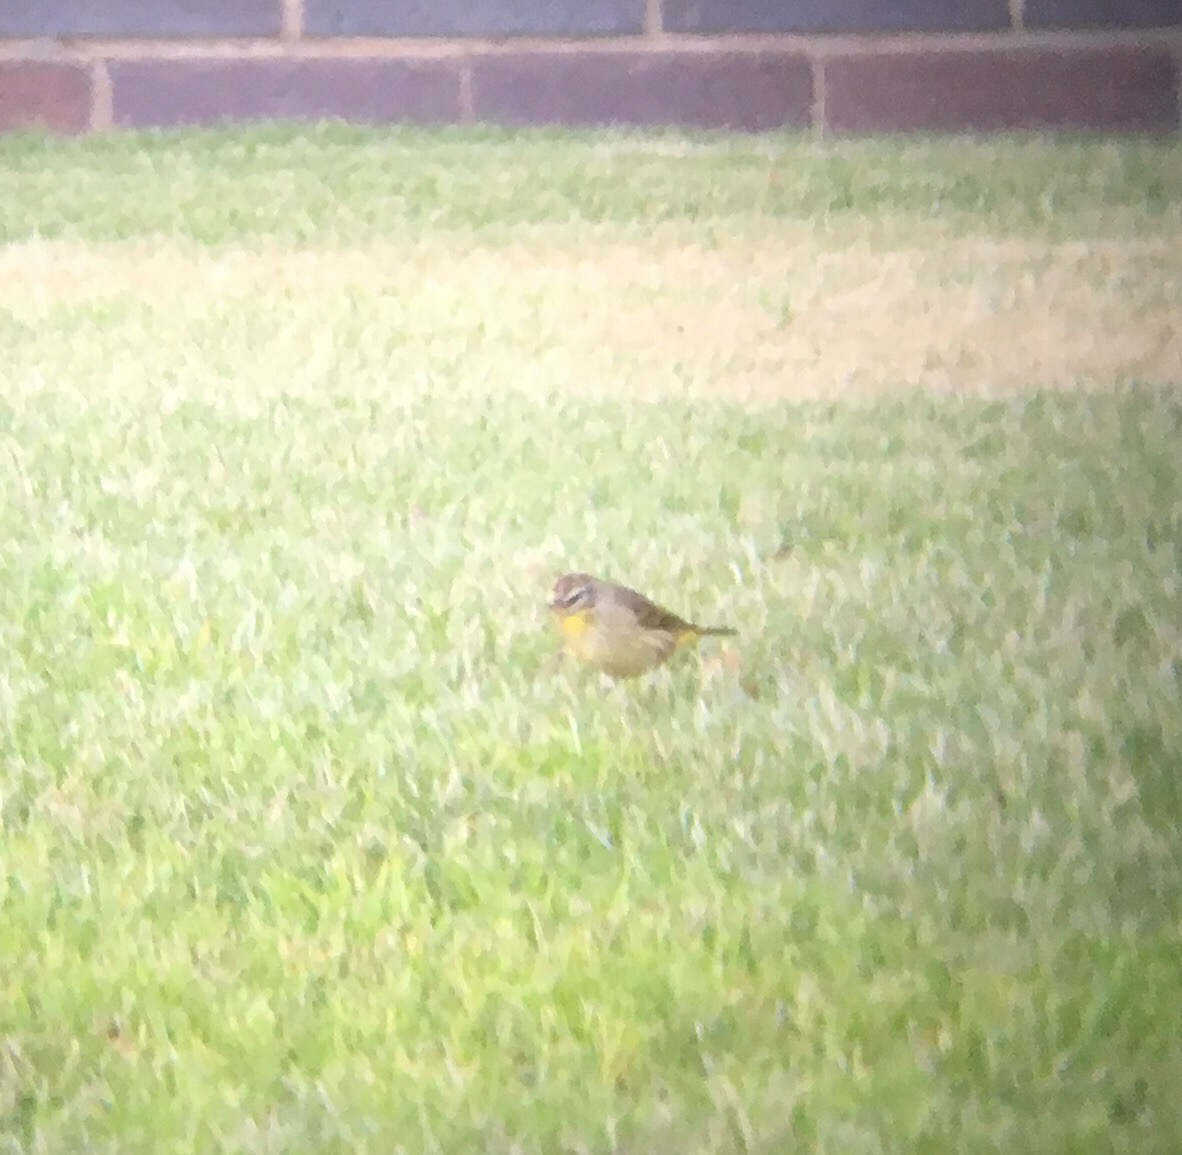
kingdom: Animalia
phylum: Chordata
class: Aves
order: Passeriformes
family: Parulidae
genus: Setophaga
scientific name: Setophaga palmarum
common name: Palm warbler
